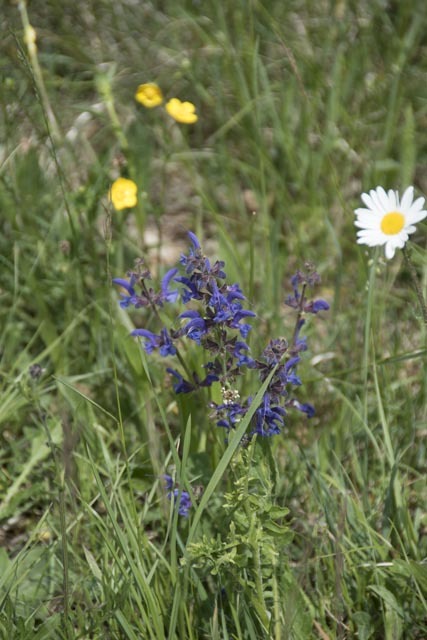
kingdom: Plantae
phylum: Tracheophyta
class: Magnoliopsida
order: Lamiales
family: Lamiaceae
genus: Salvia
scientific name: Salvia pratensis
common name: Meadow sage
